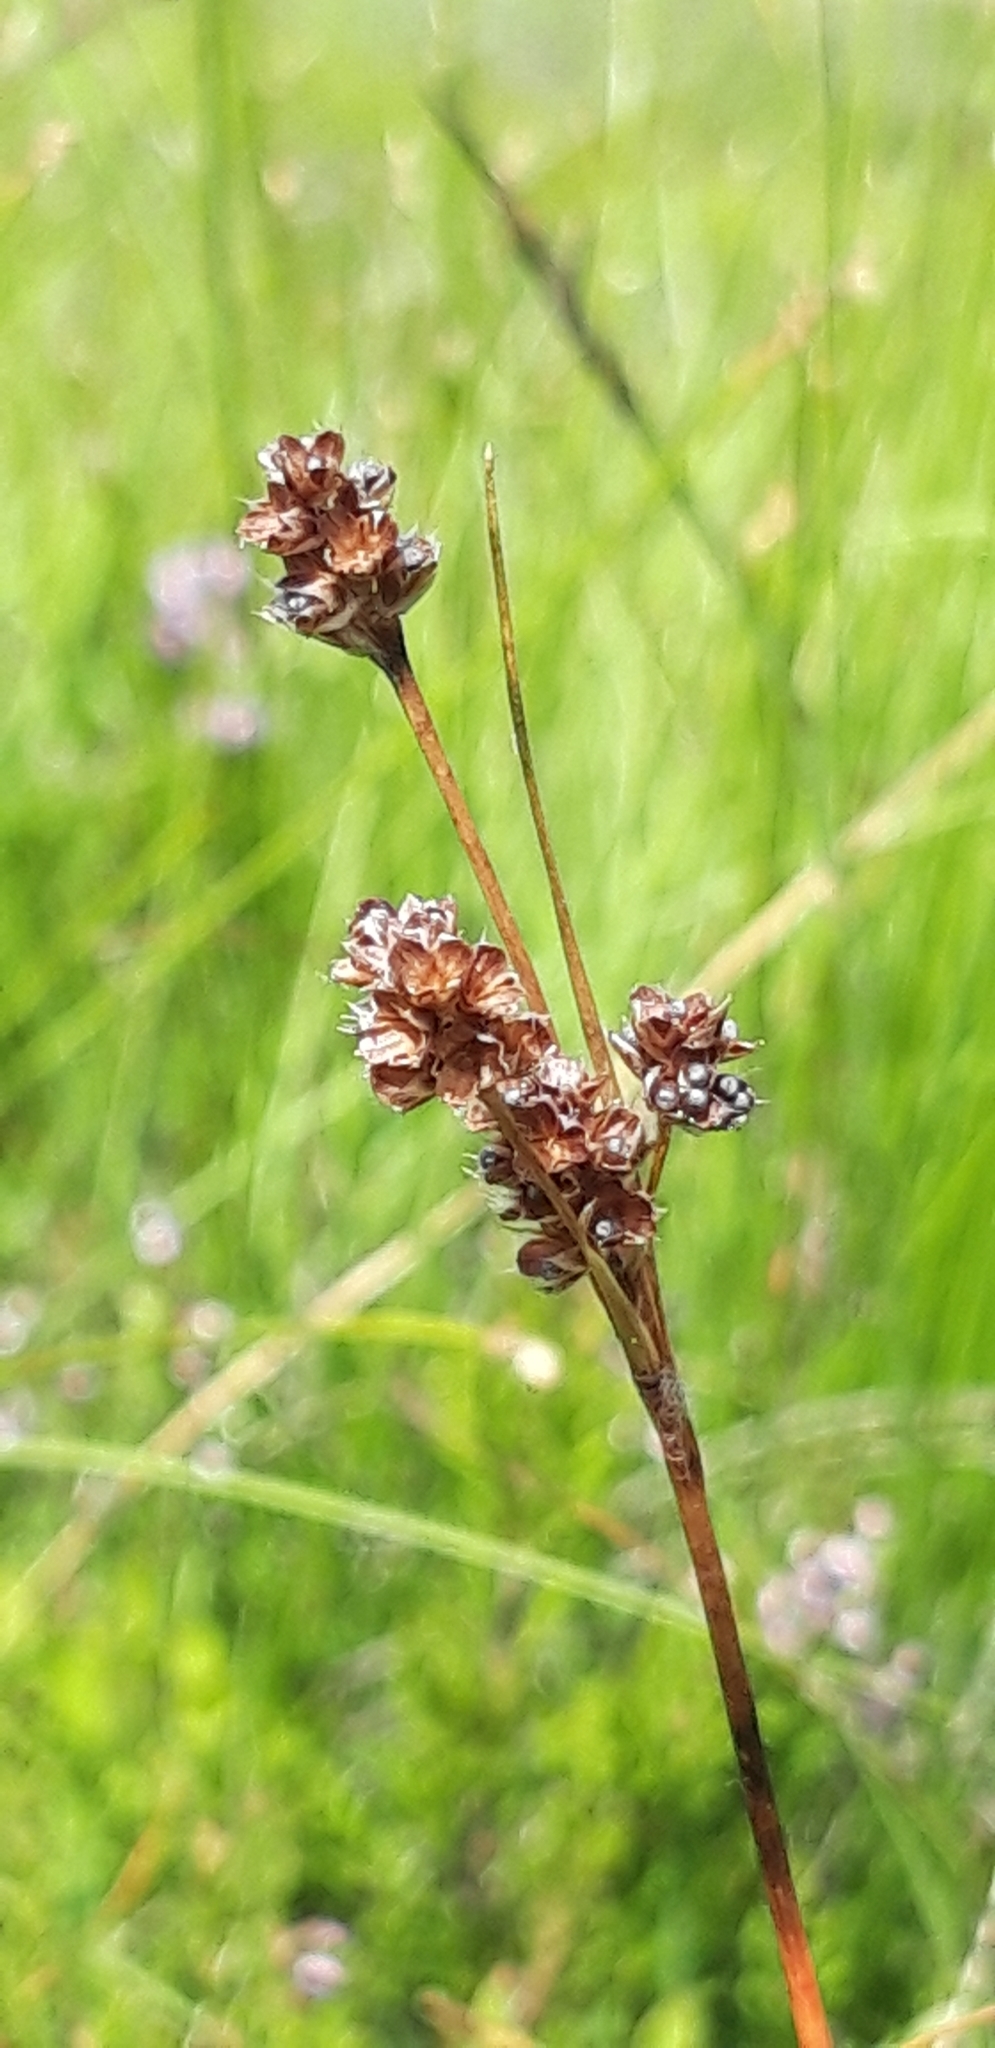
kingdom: Plantae
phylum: Tracheophyta
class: Liliopsida
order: Poales
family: Juncaceae
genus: Luzula
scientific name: Luzula multiflora
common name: Heath wood-rush
